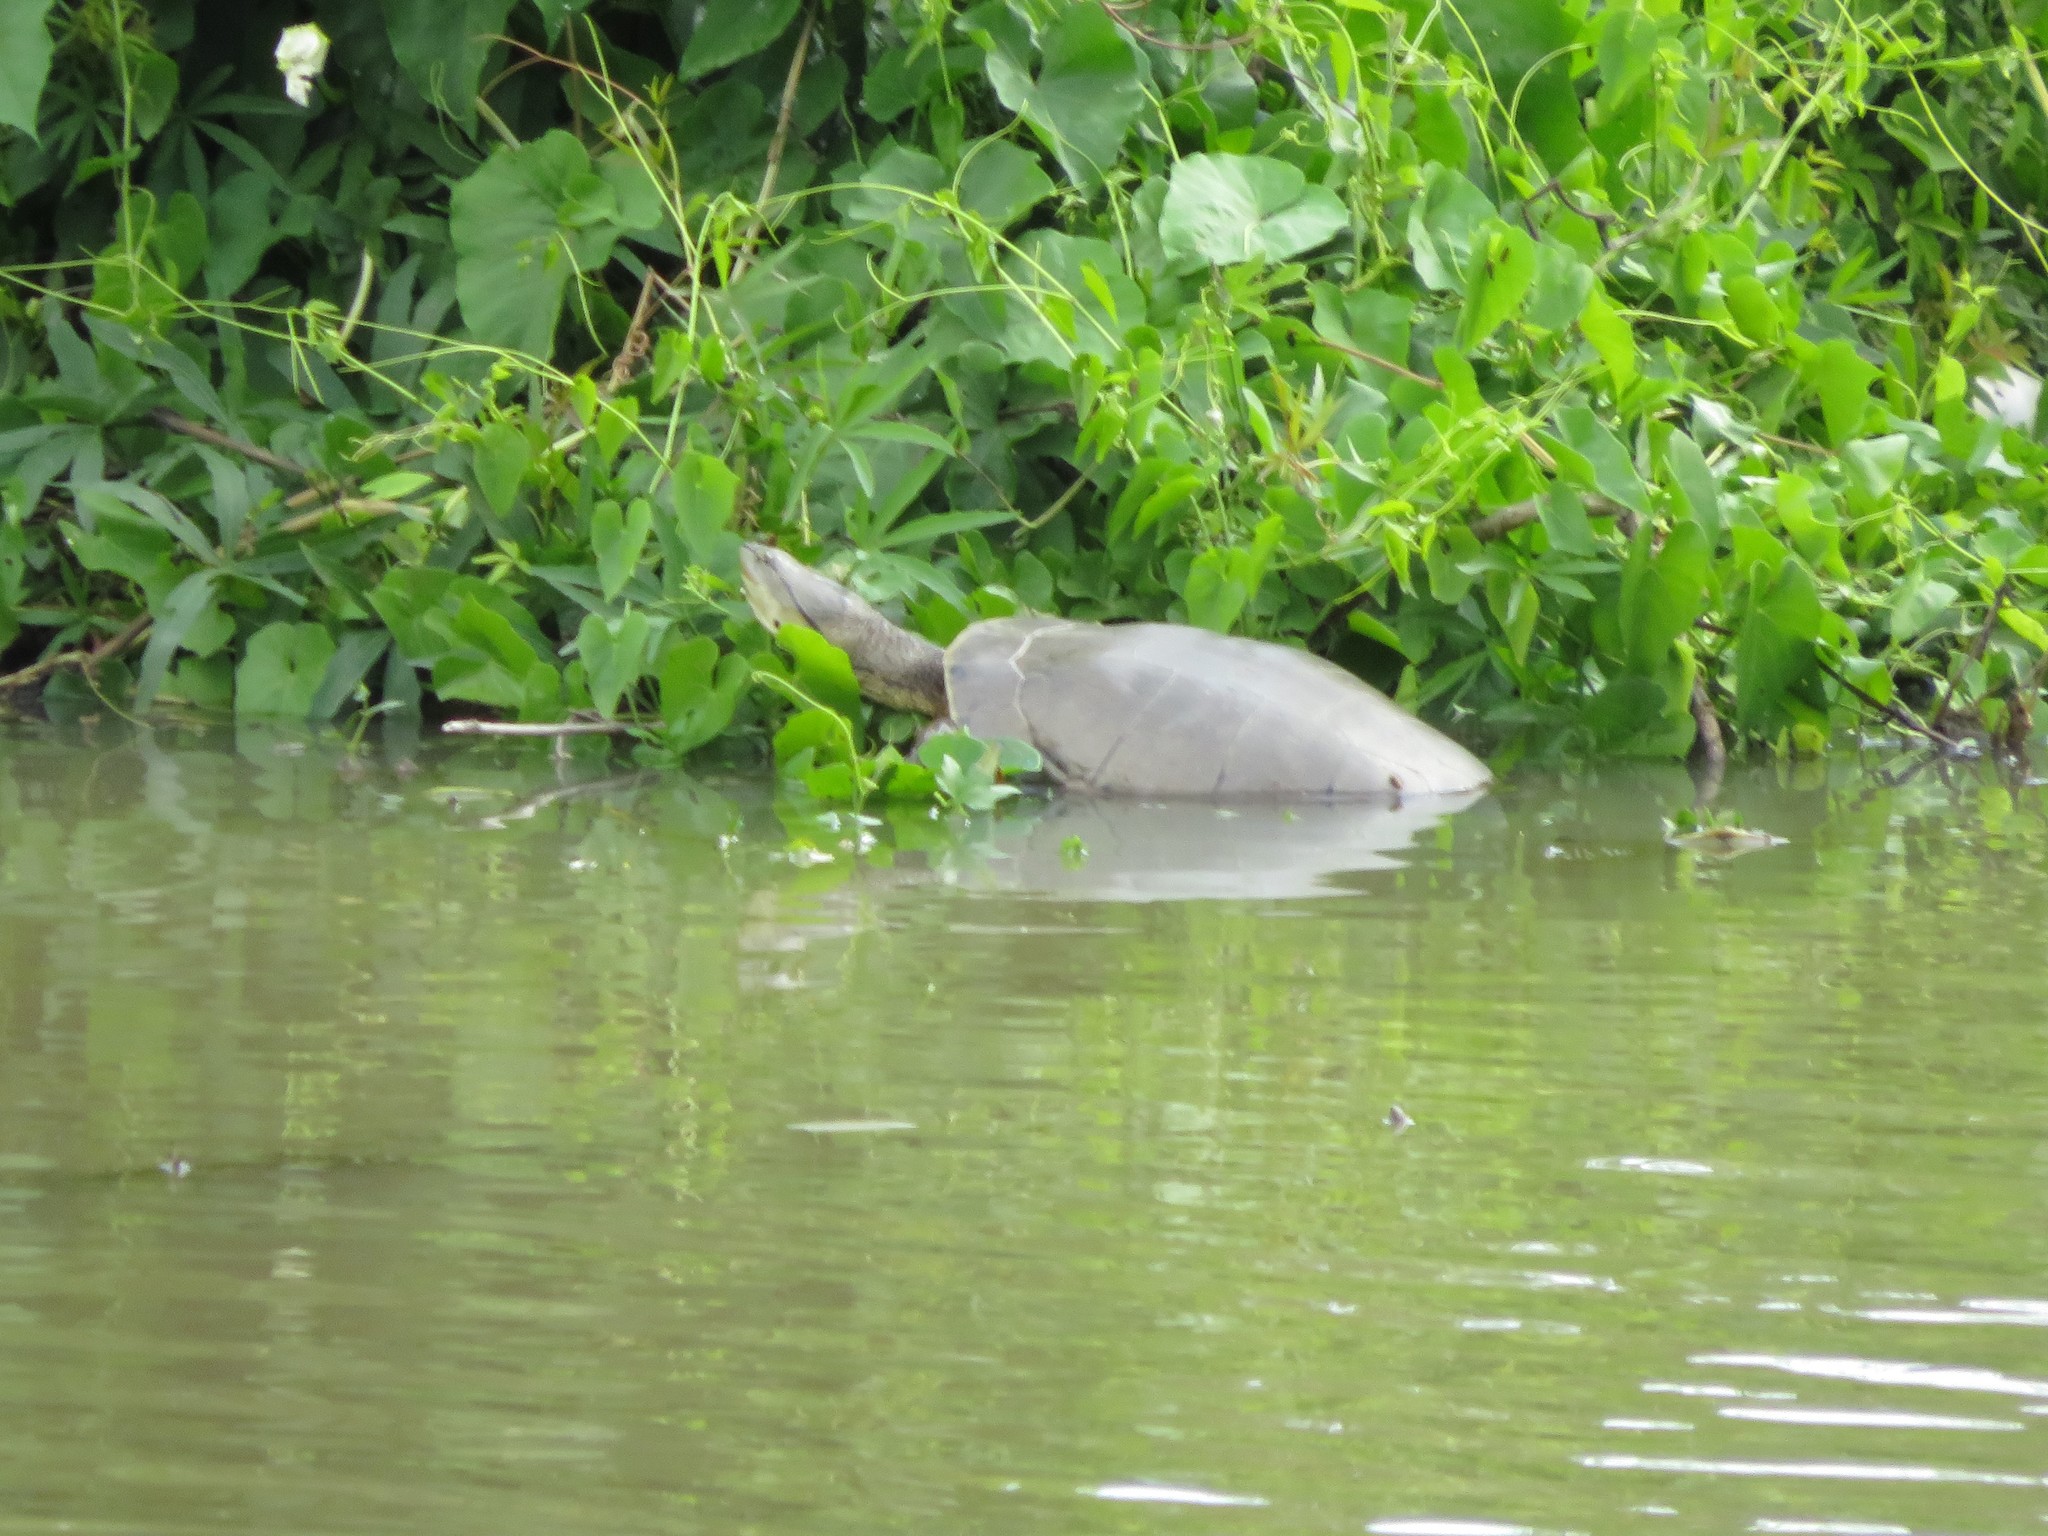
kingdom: Animalia
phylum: Chordata
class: Testudines
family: Chelidae
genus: Phrynops
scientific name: Phrynops hilarii
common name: Side-necked turtle of saint hillaire
